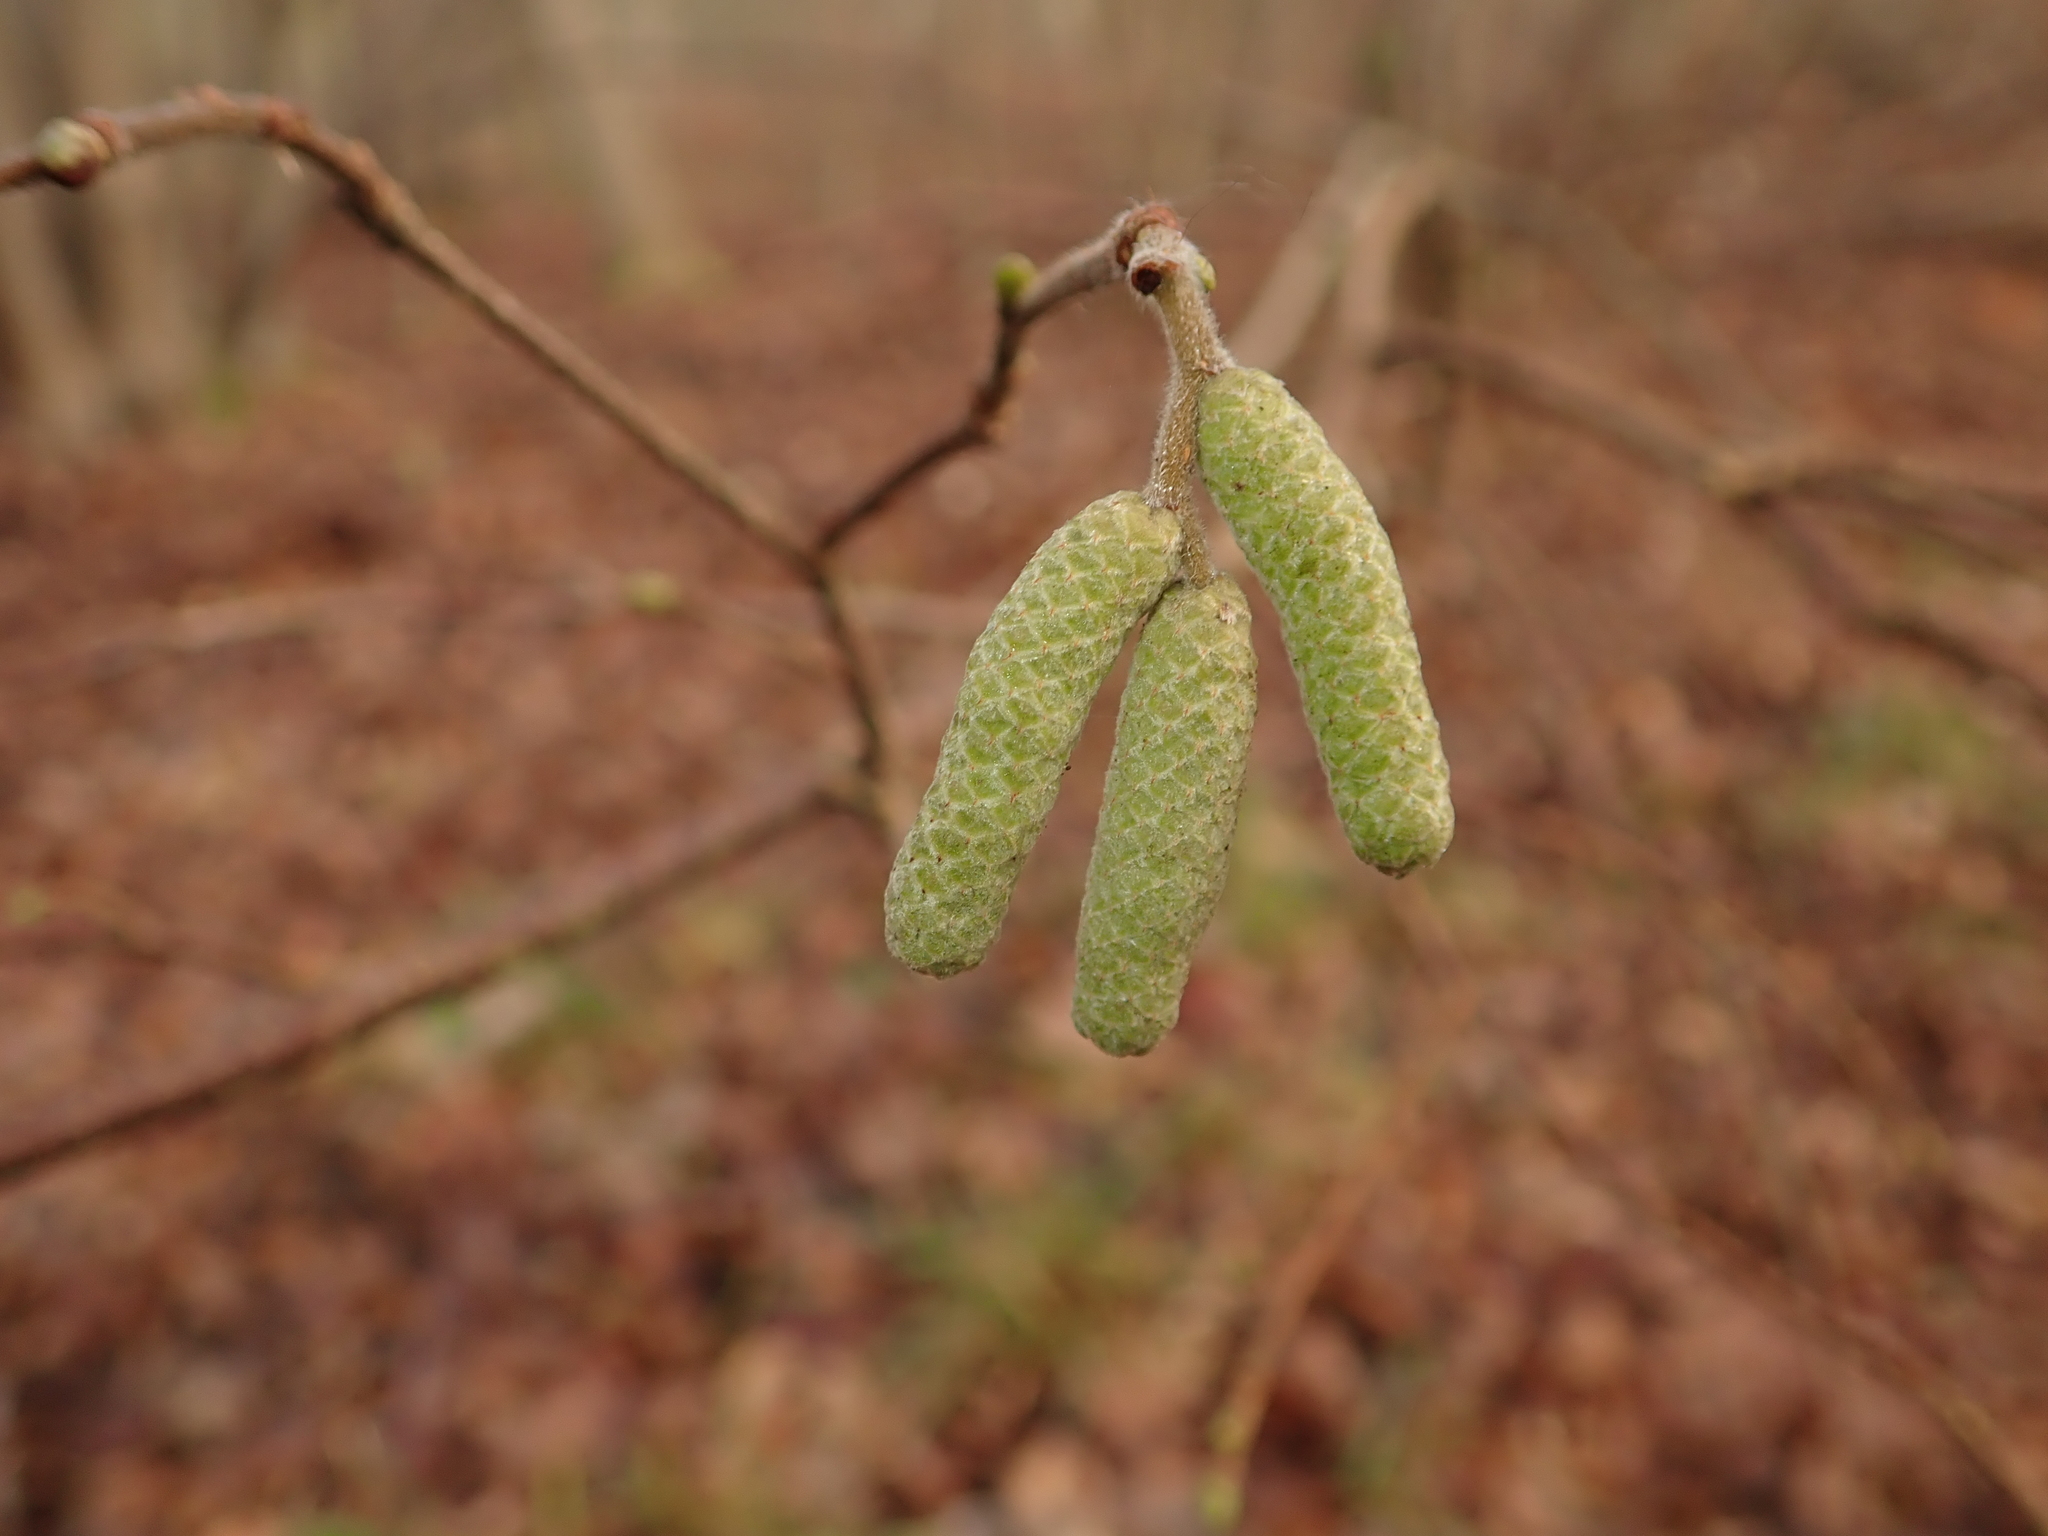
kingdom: Plantae
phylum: Tracheophyta
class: Magnoliopsida
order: Fagales
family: Betulaceae
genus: Corylus
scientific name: Corylus avellana
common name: European hazel
